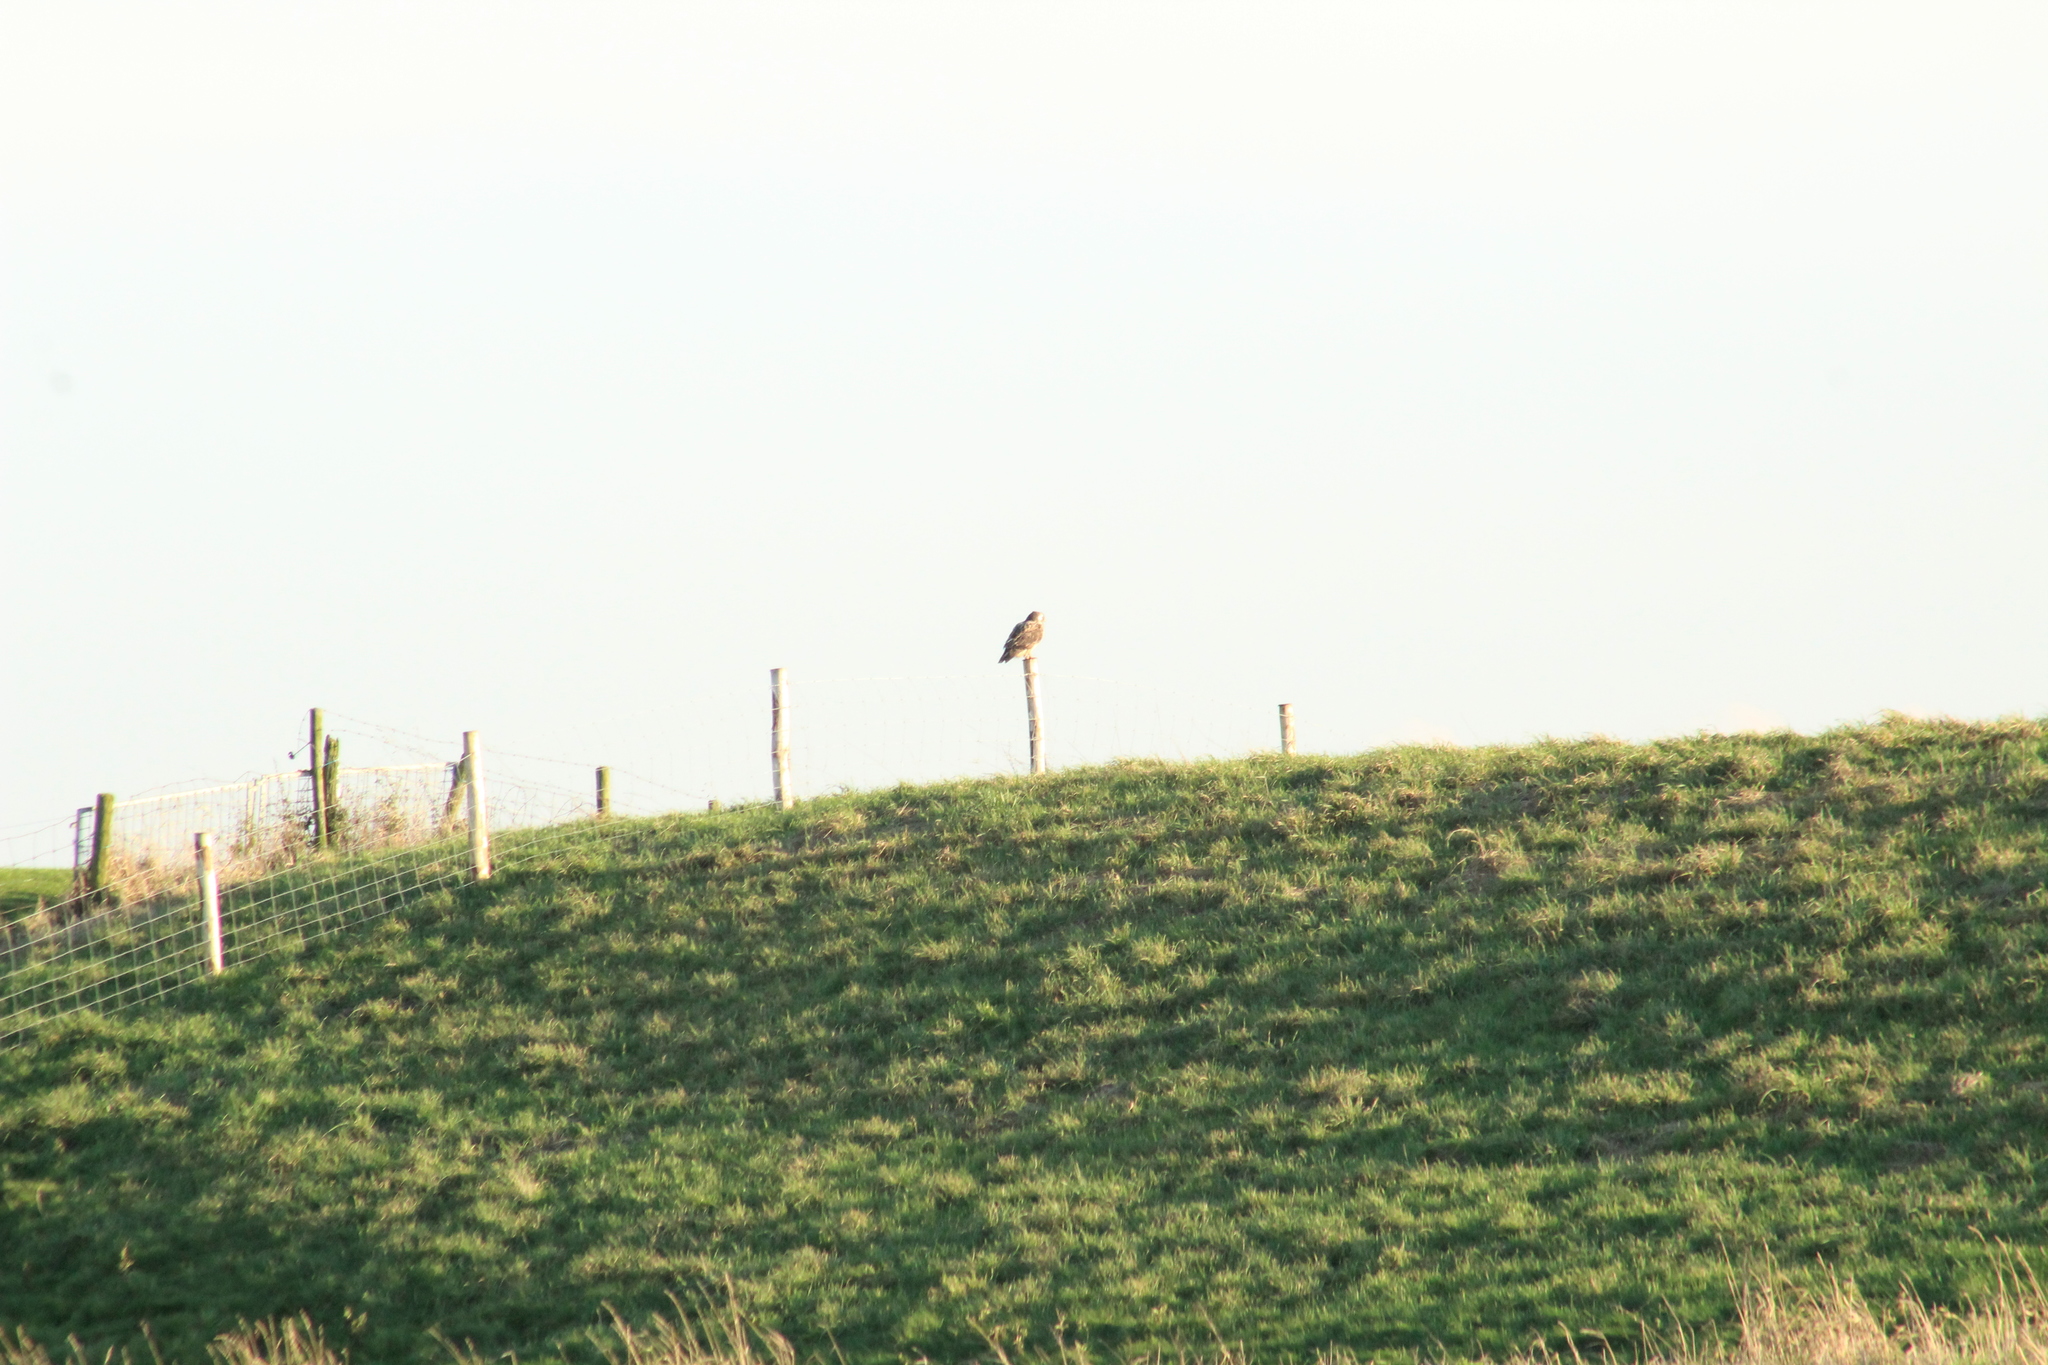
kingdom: Animalia
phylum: Chordata
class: Aves
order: Accipitriformes
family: Accipitridae
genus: Buteo
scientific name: Buteo buteo
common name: Common buzzard
